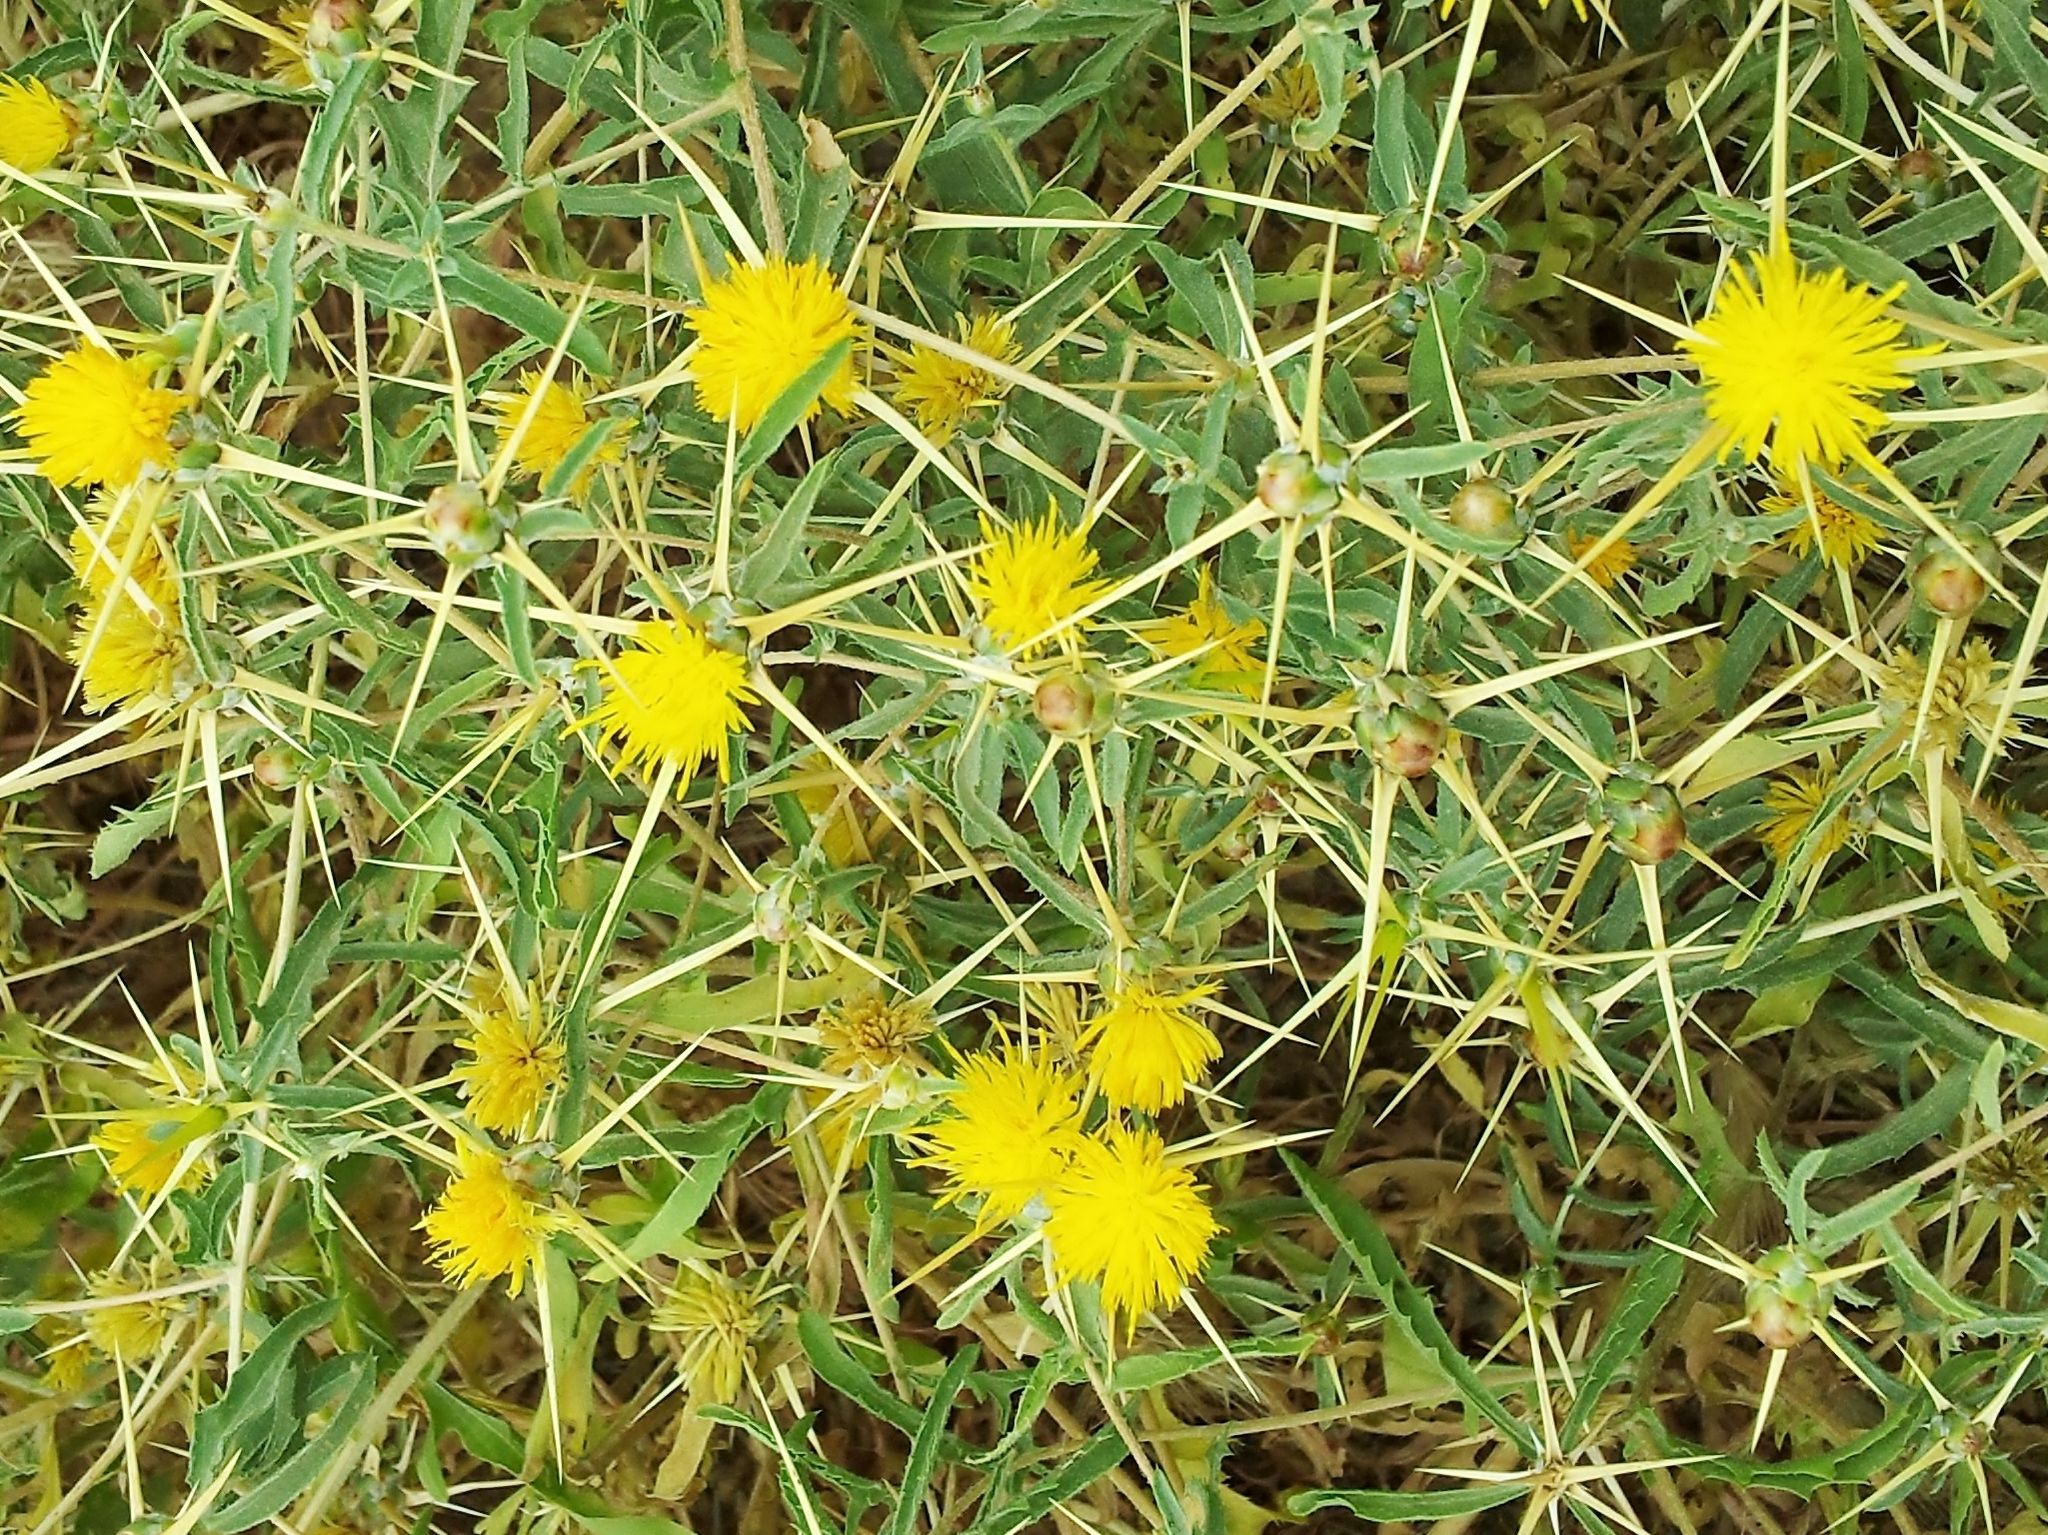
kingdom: Plantae
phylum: Tracheophyta
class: Magnoliopsida
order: Asterales
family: Asteraceae
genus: Centaurea
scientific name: Centaurea hyalolepis
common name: Eastern star-thistle
